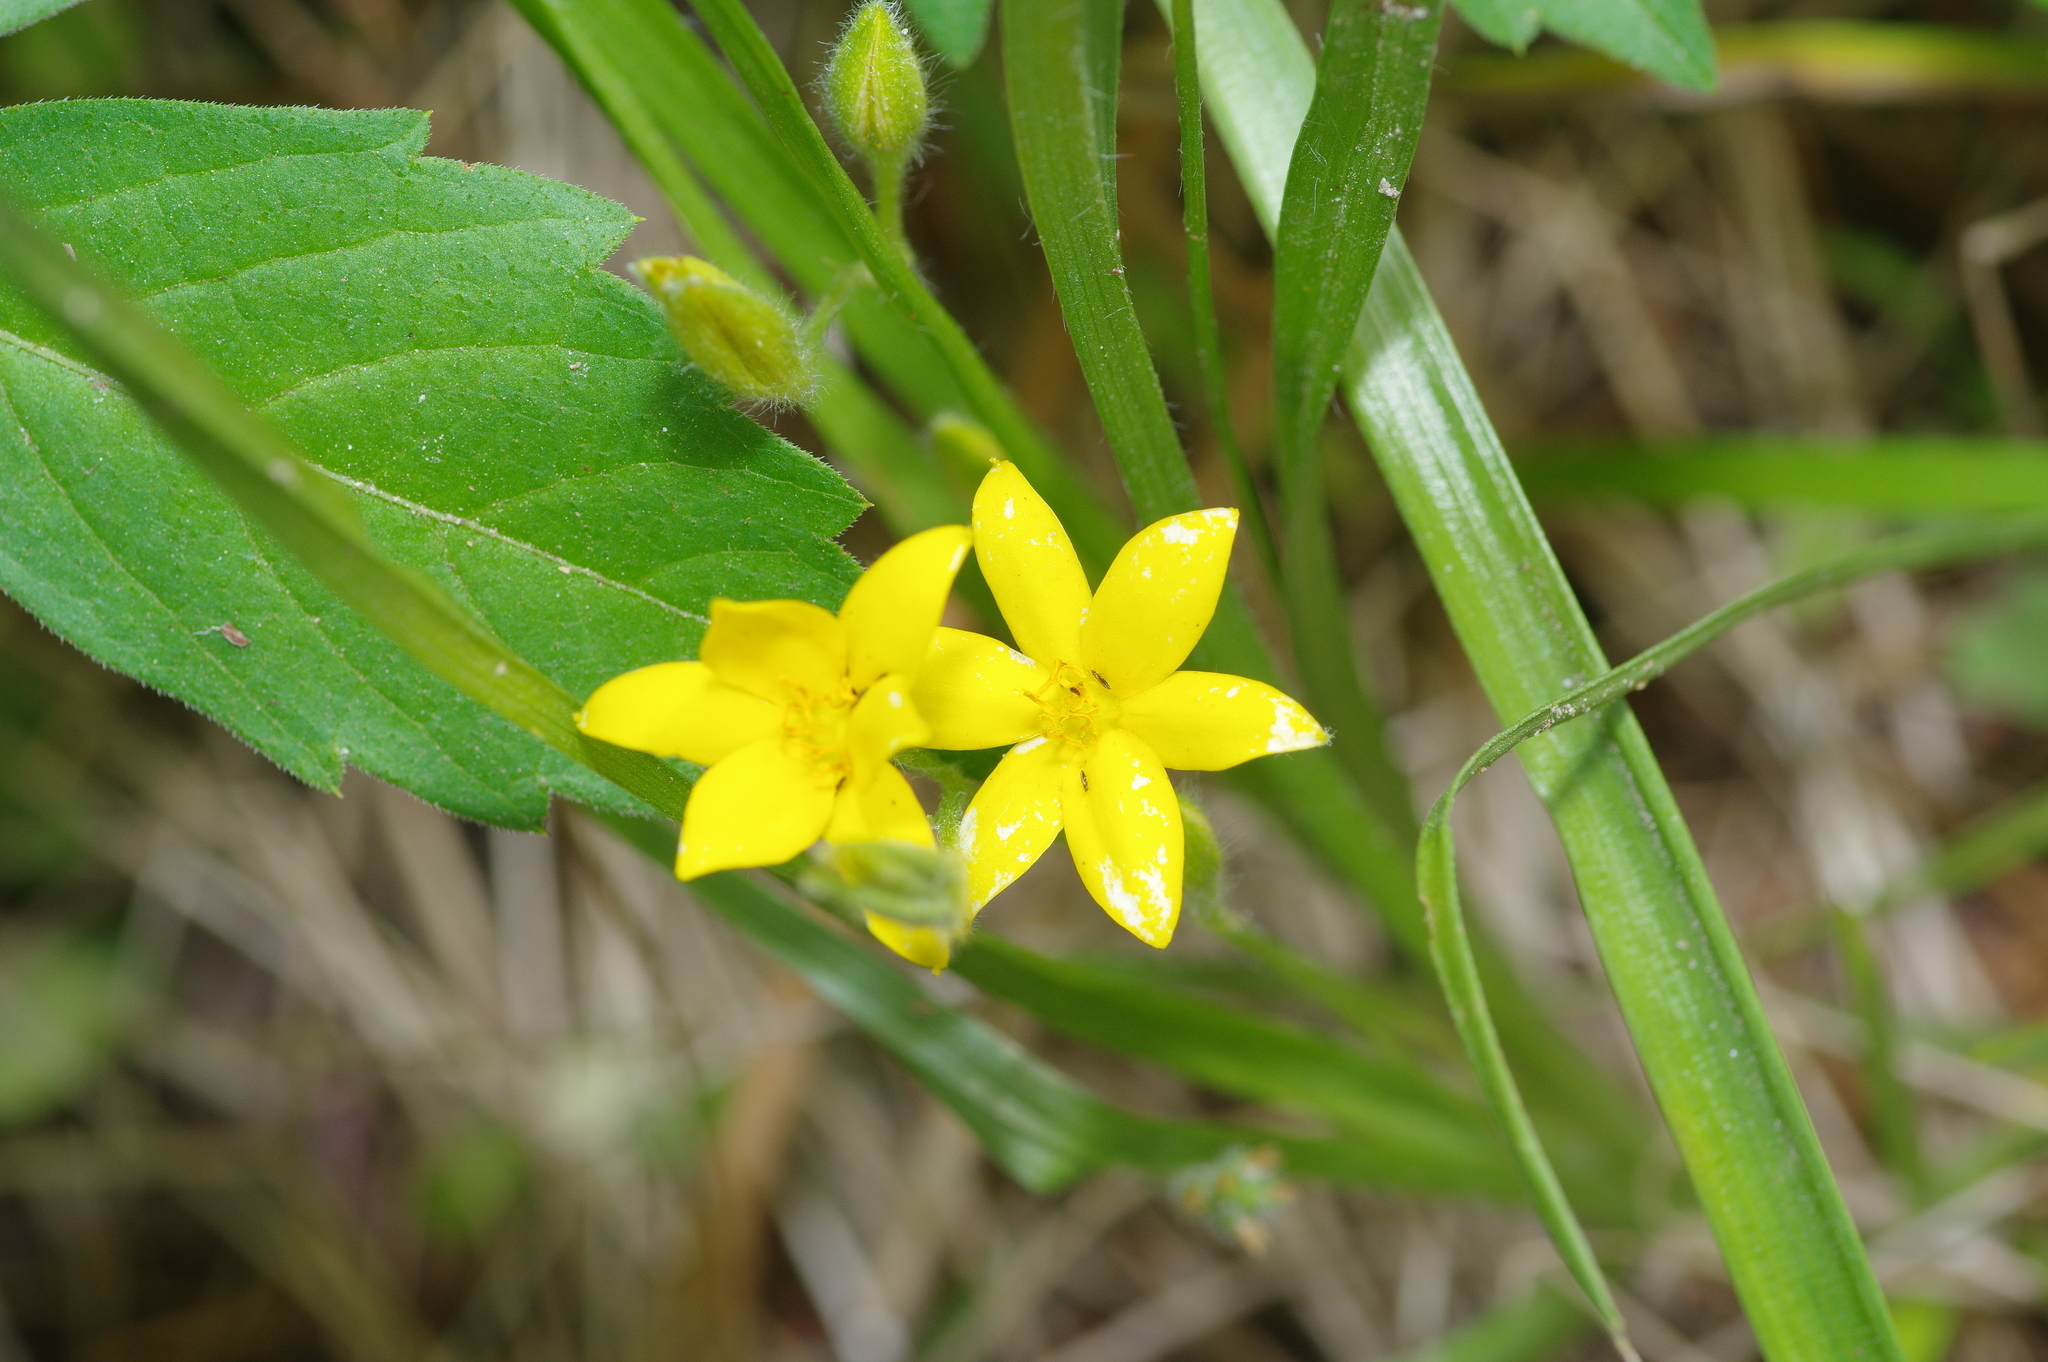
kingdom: Plantae
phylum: Tracheophyta
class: Liliopsida
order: Asparagales
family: Hypoxidaceae
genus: Hypoxis
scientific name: Hypoxis hirsuta
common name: Common goldstar
